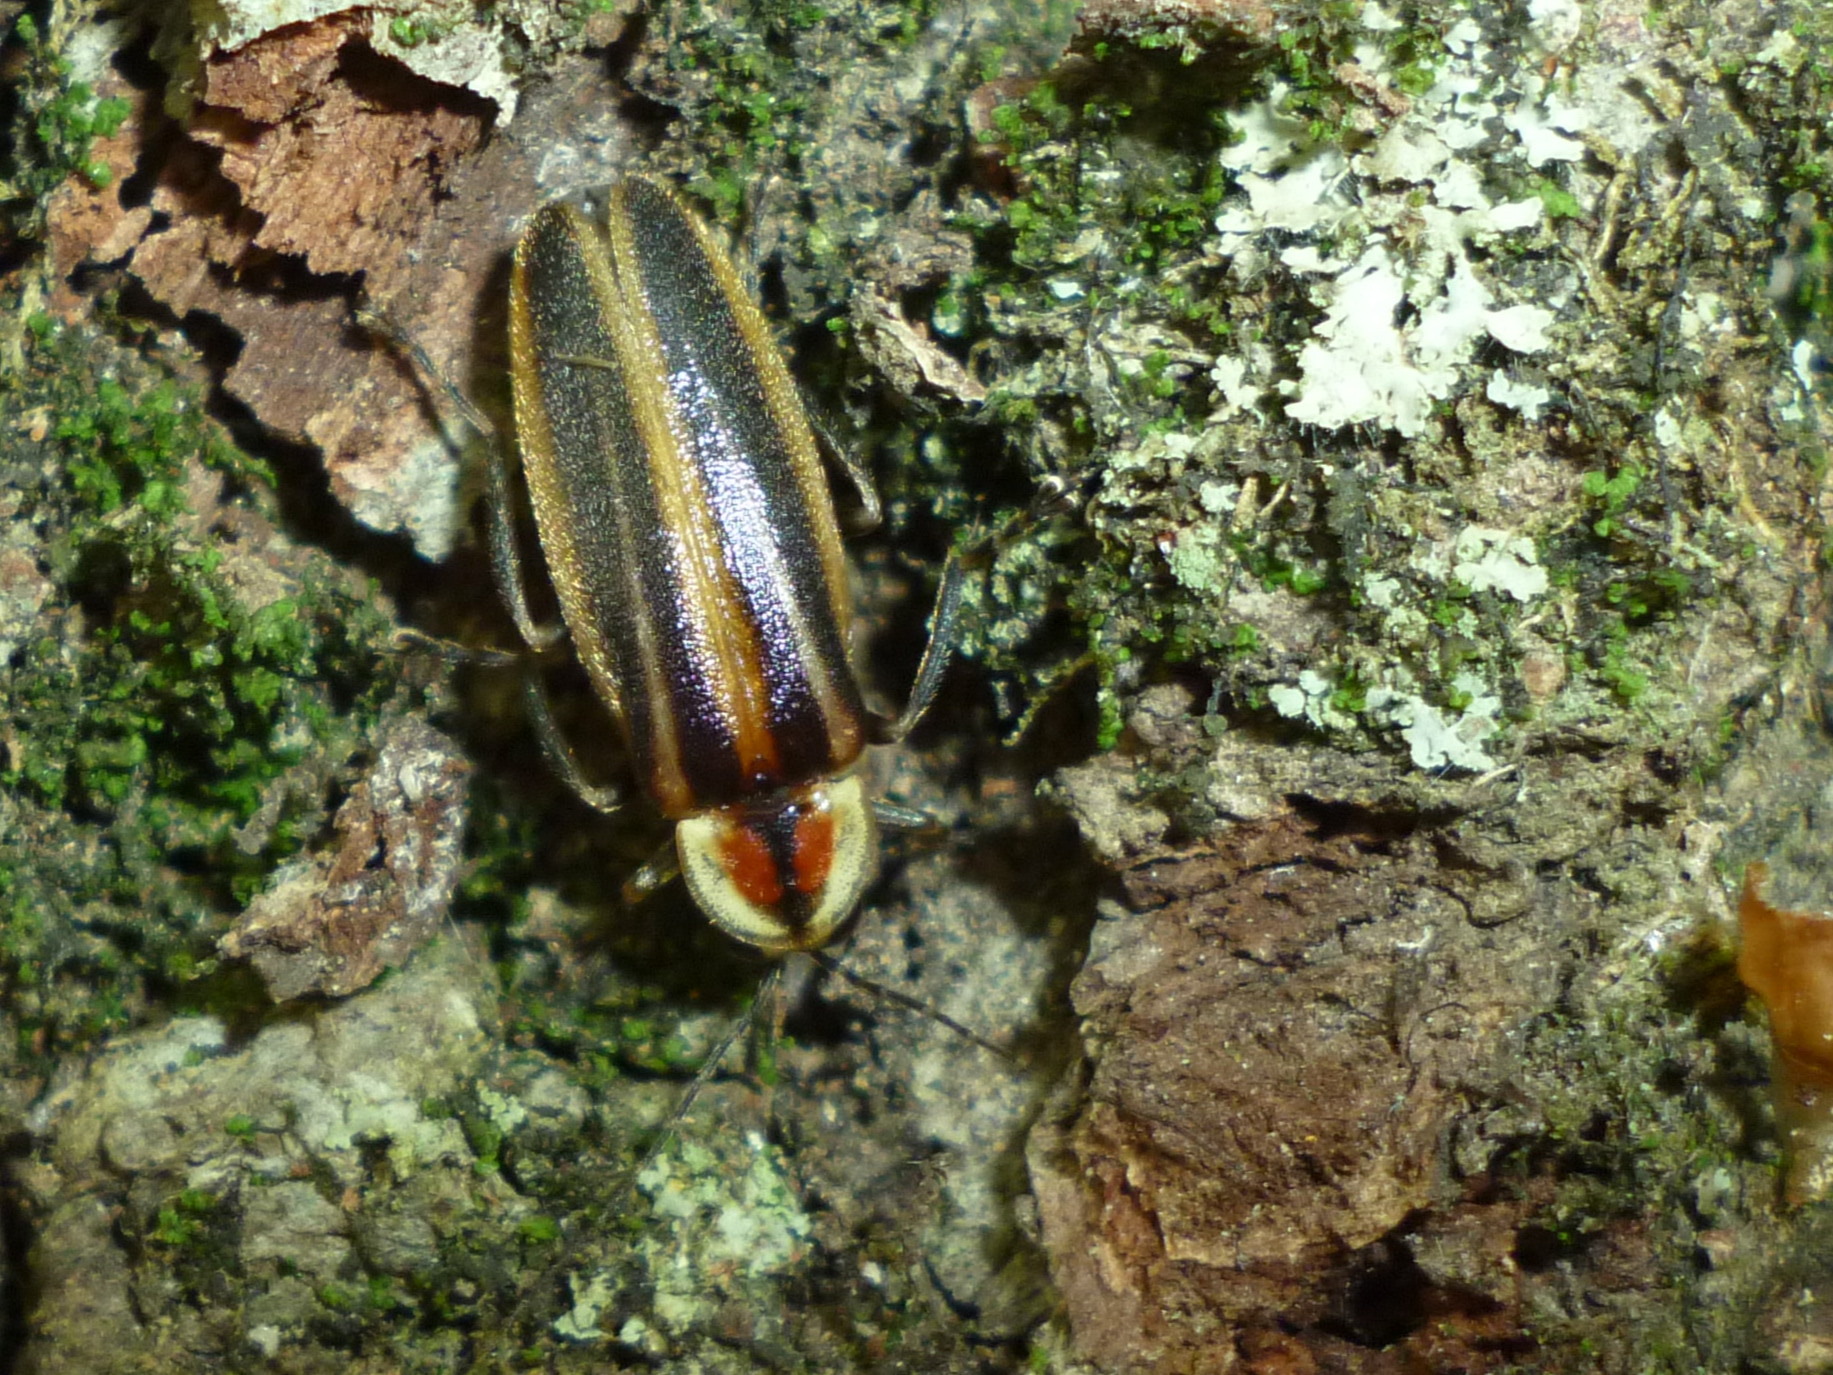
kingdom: Animalia
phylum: Arthropoda
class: Insecta
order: Coleoptera
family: Lampyridae
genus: Photuris
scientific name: Photuris
